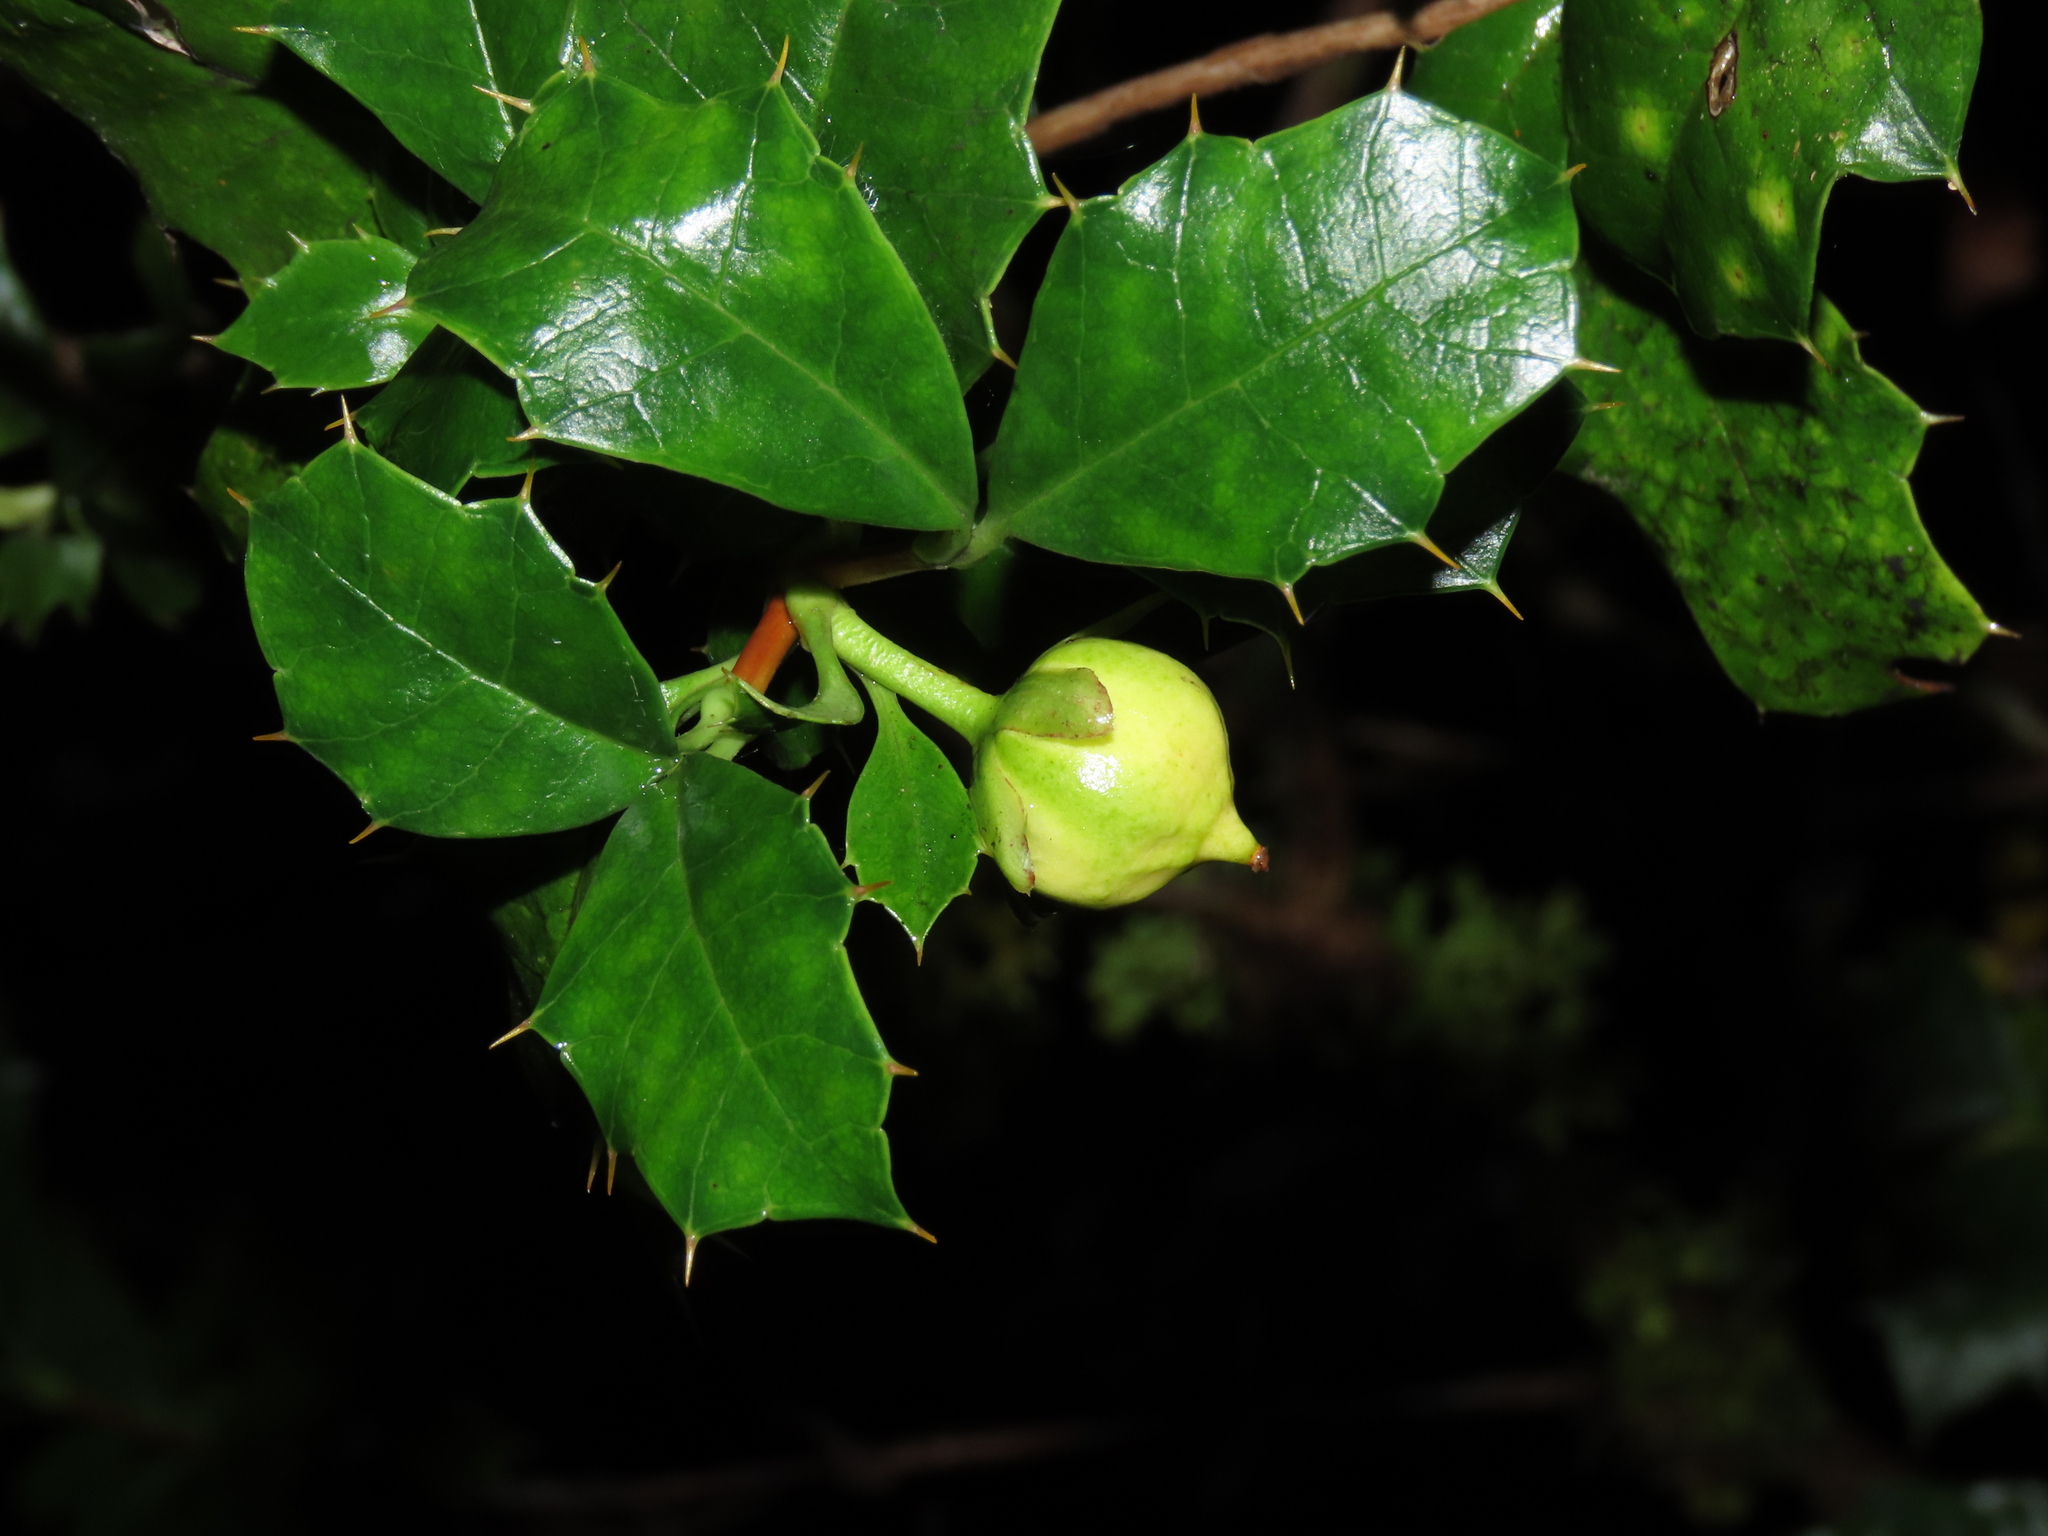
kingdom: Plantae
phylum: Tracheophyta
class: Magnoliopsida
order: Bruniales
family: Columelliaceae
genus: Desfontainia
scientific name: Desfontainia fulgens
